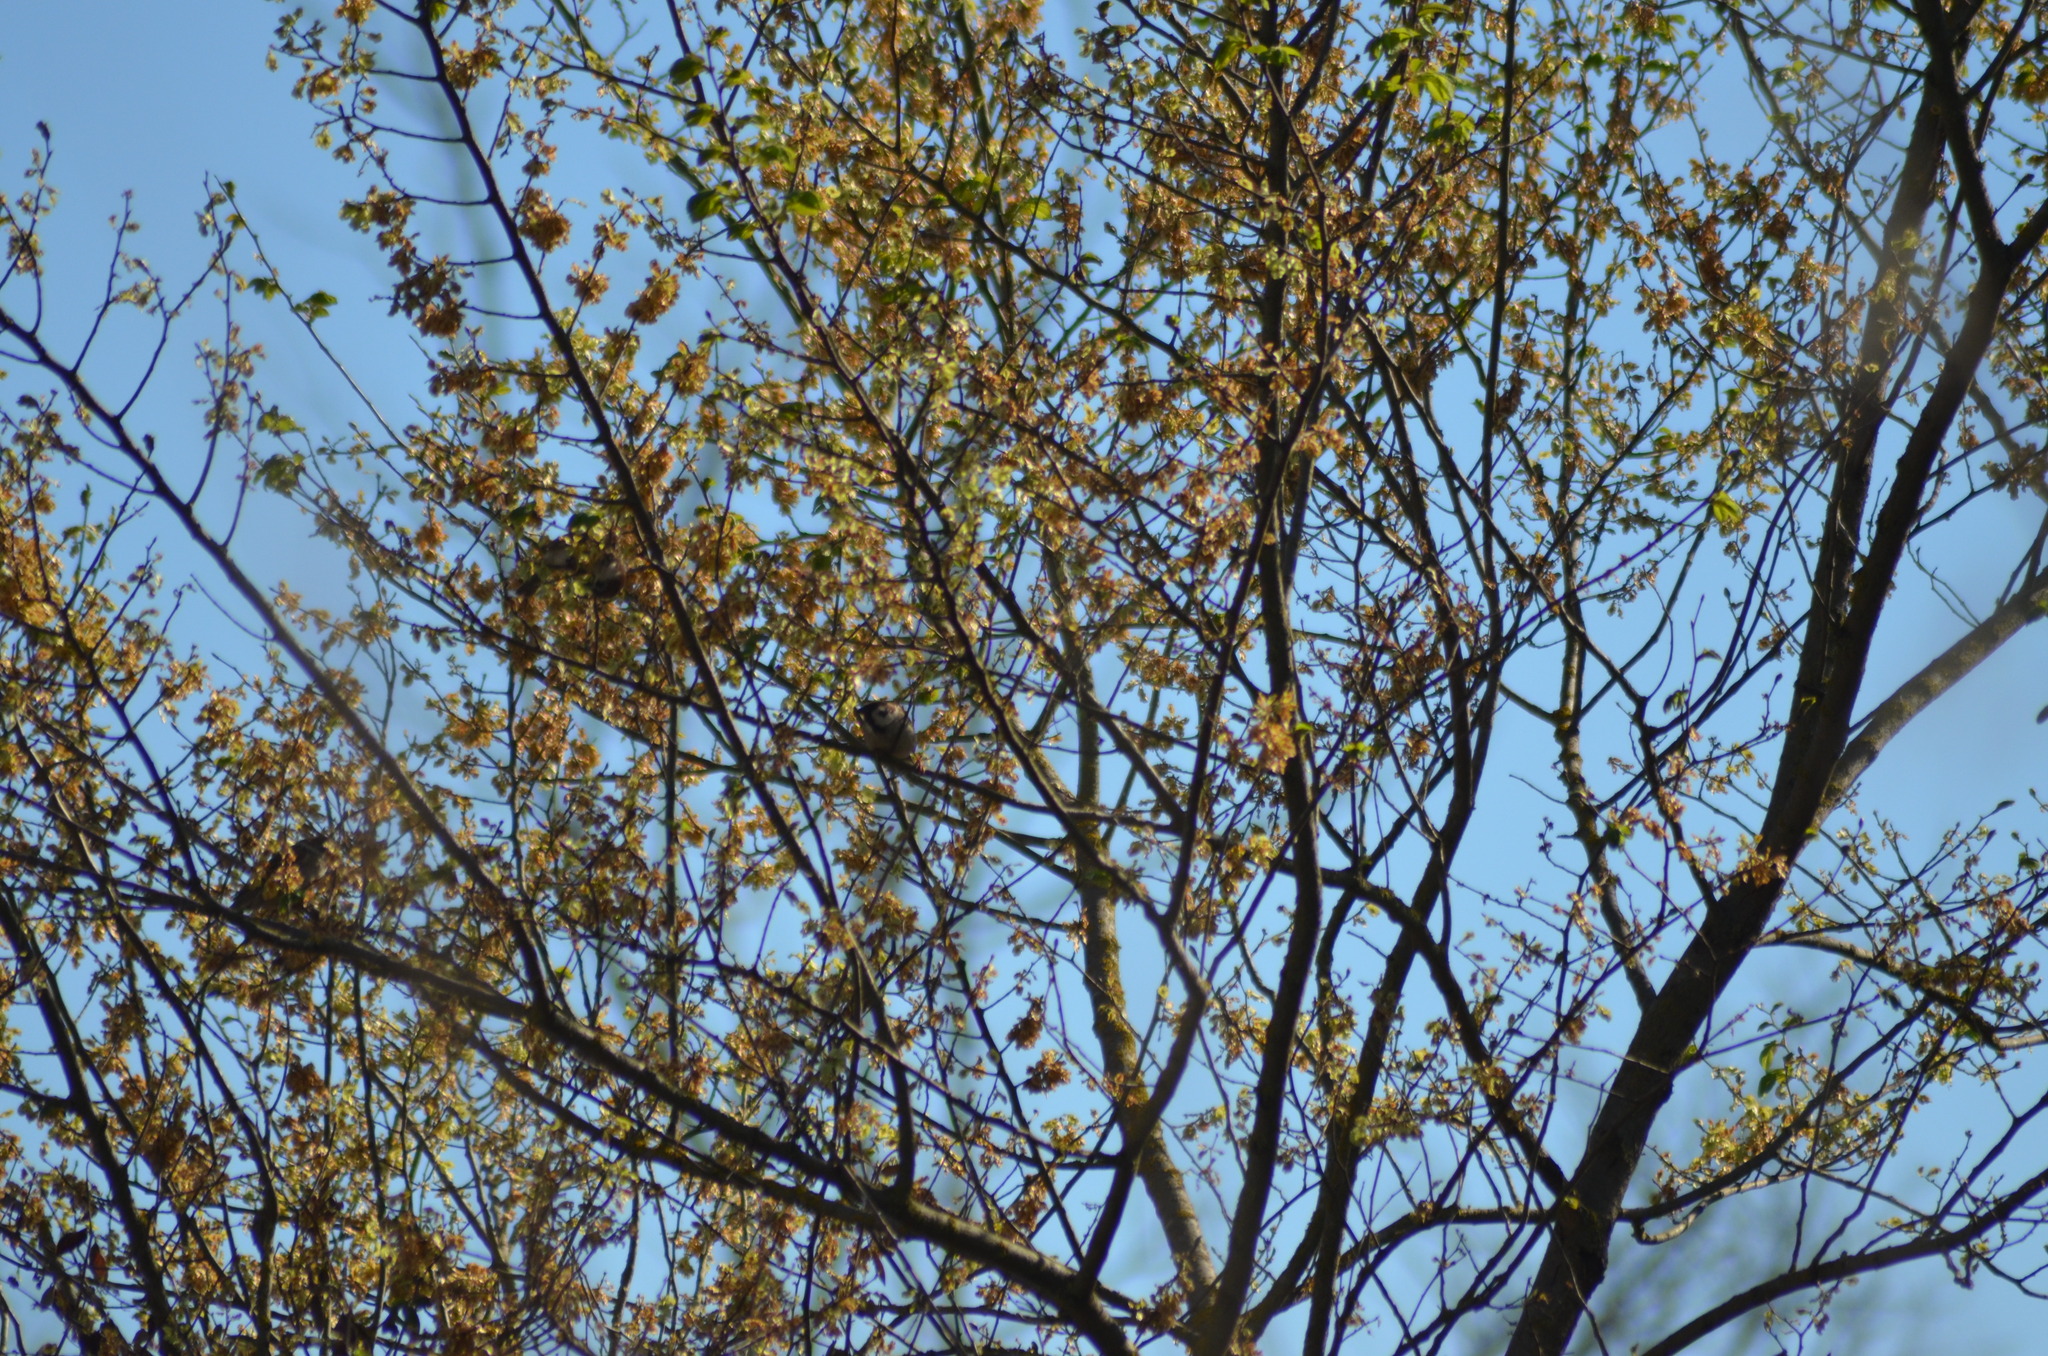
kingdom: Animalia
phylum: Chordata
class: Aves
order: Passeriformes
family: Passeridae
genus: Passer
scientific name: Passer montanus
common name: Eurasian tree sparrow
